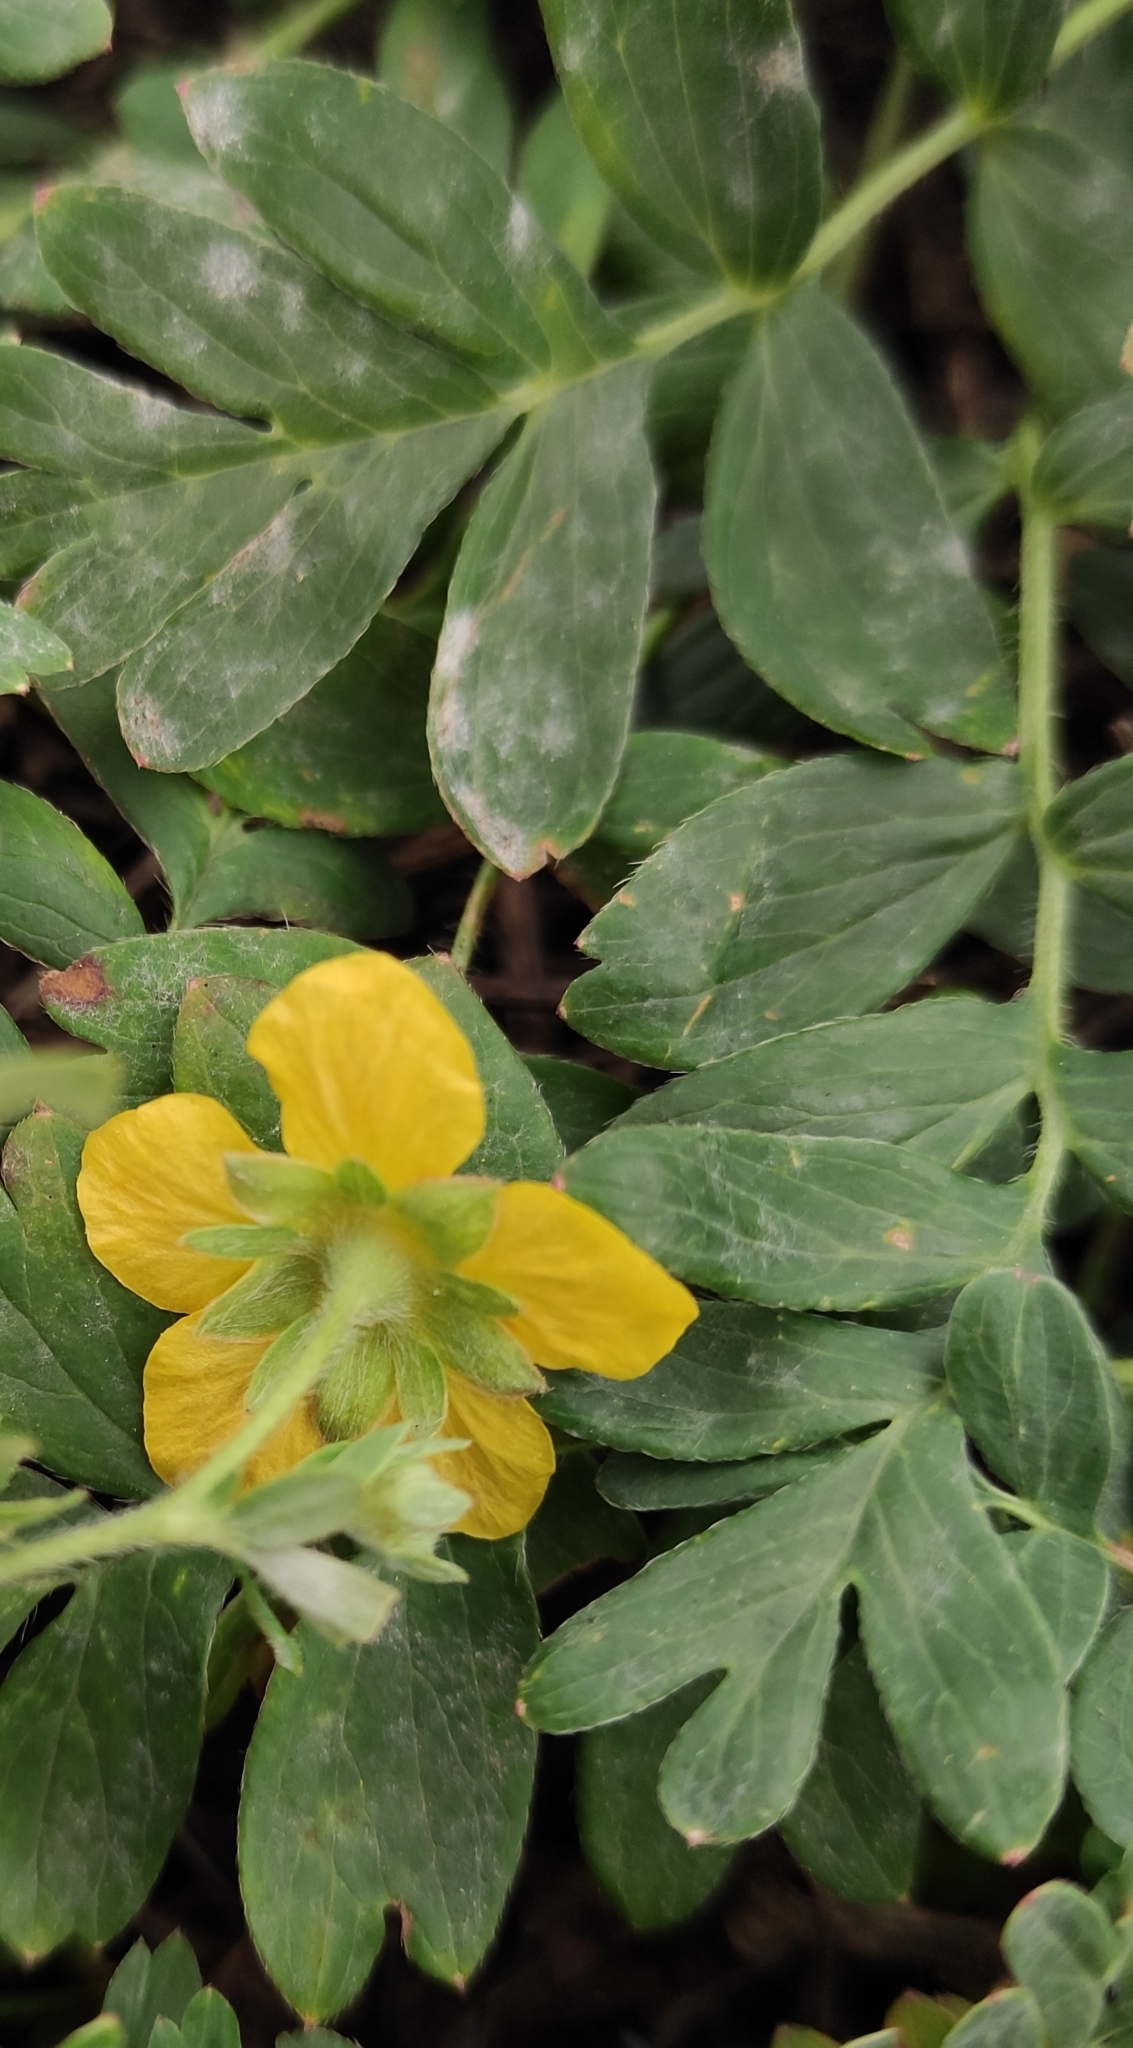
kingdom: Plantae
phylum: Tracheophyta
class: Magnoliopsida
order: Rosales
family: Rosaceae
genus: Sibbaldianthe
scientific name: Sibbaldianthe bifurca
